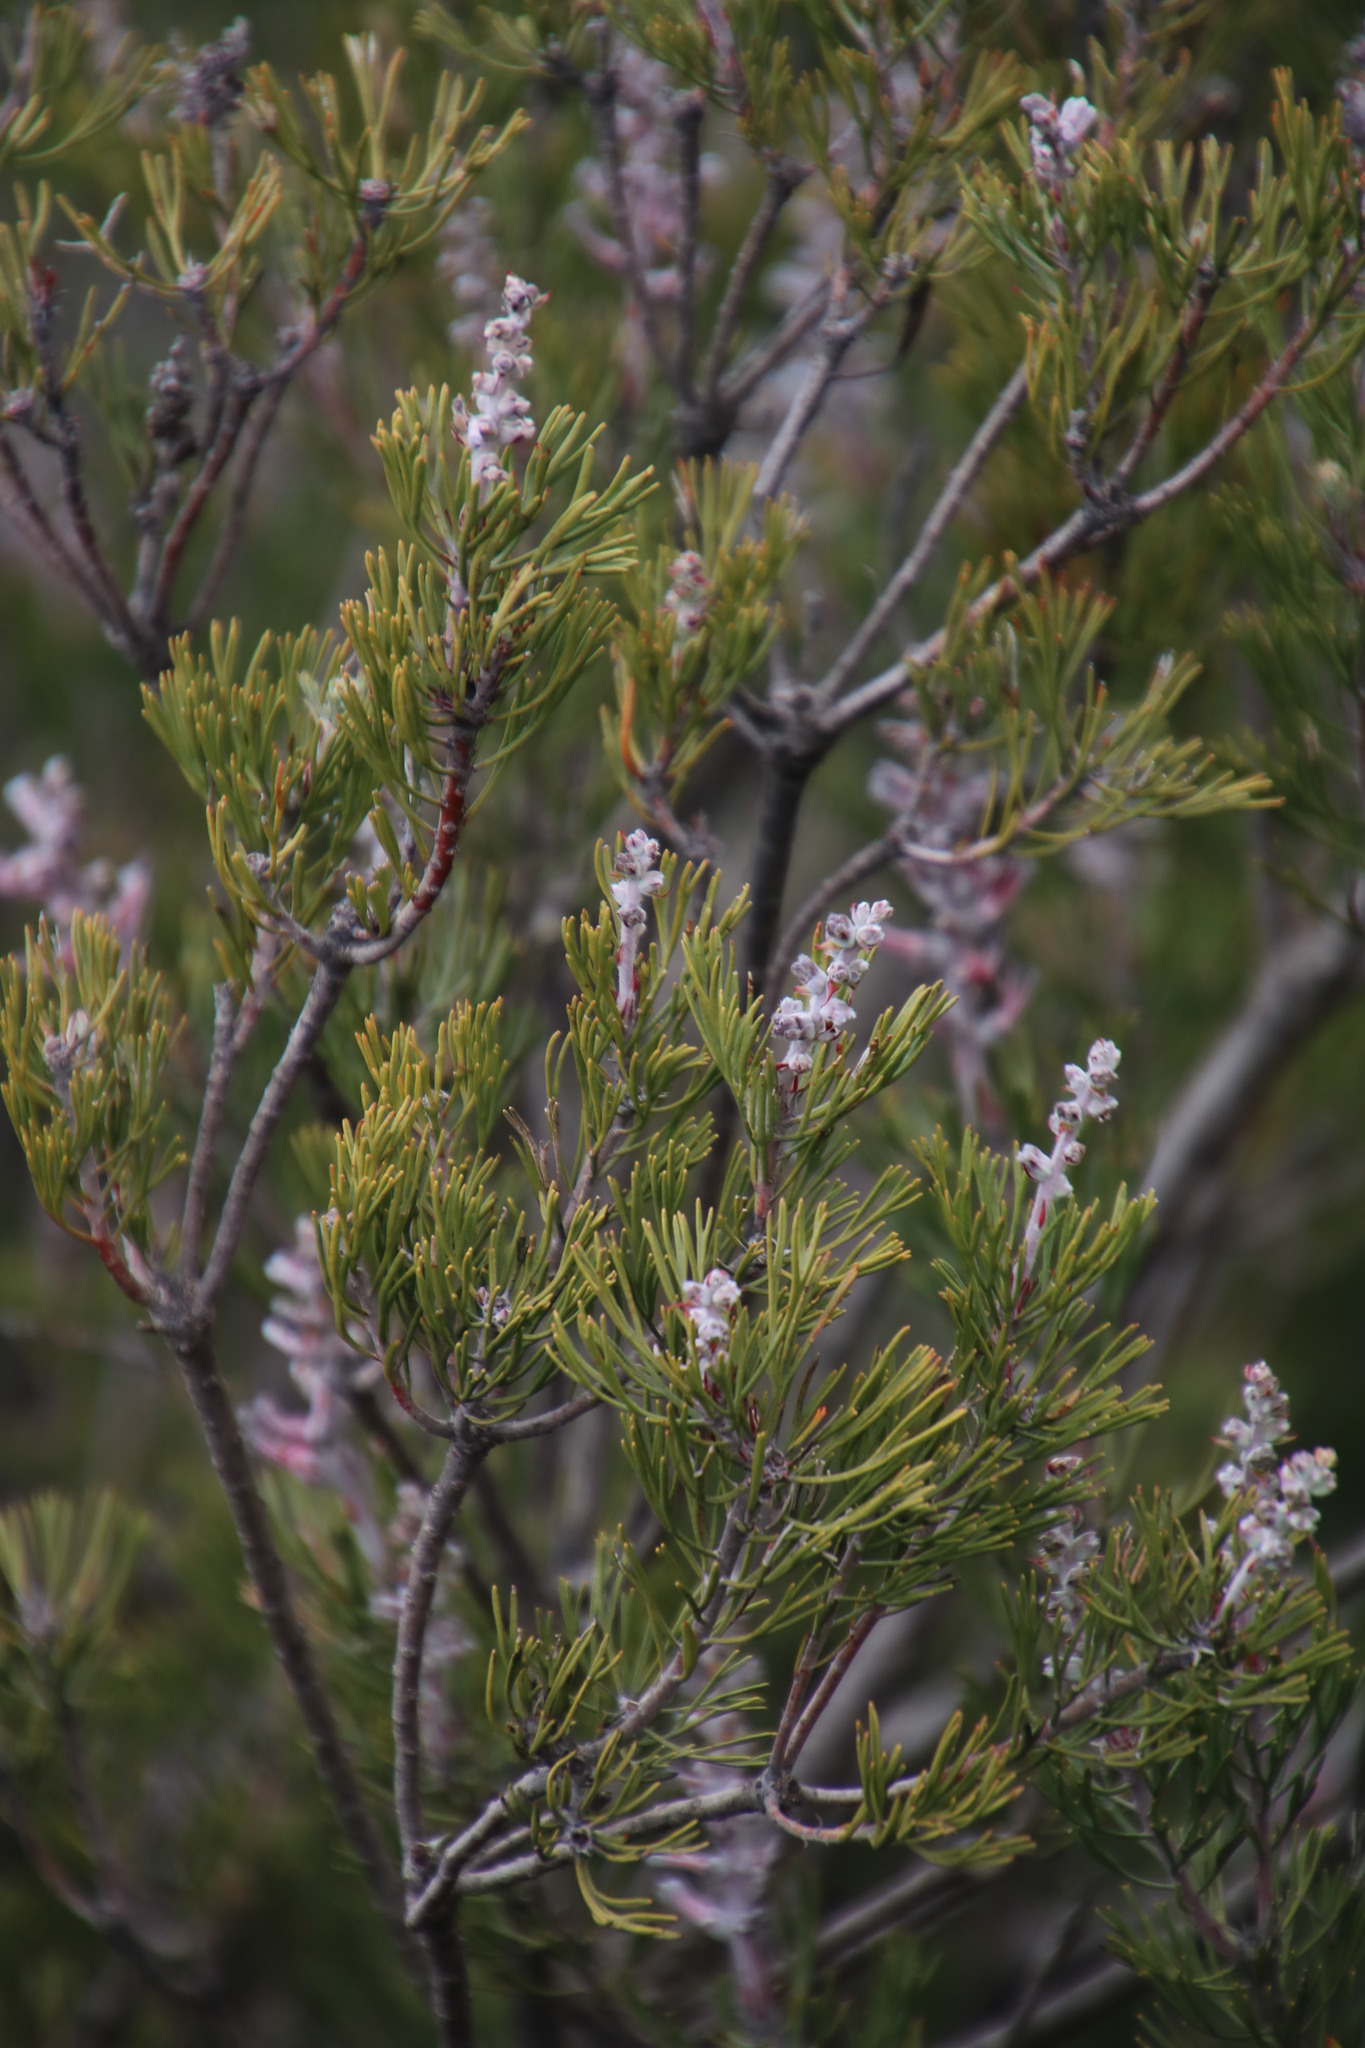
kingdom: Plantae
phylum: Tracheophyta
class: Magnoliopsida
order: Proteales
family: Proteaceae
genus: Paranomus
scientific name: Paranomus bracteolaris
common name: Bokkeveld tree sceptre
